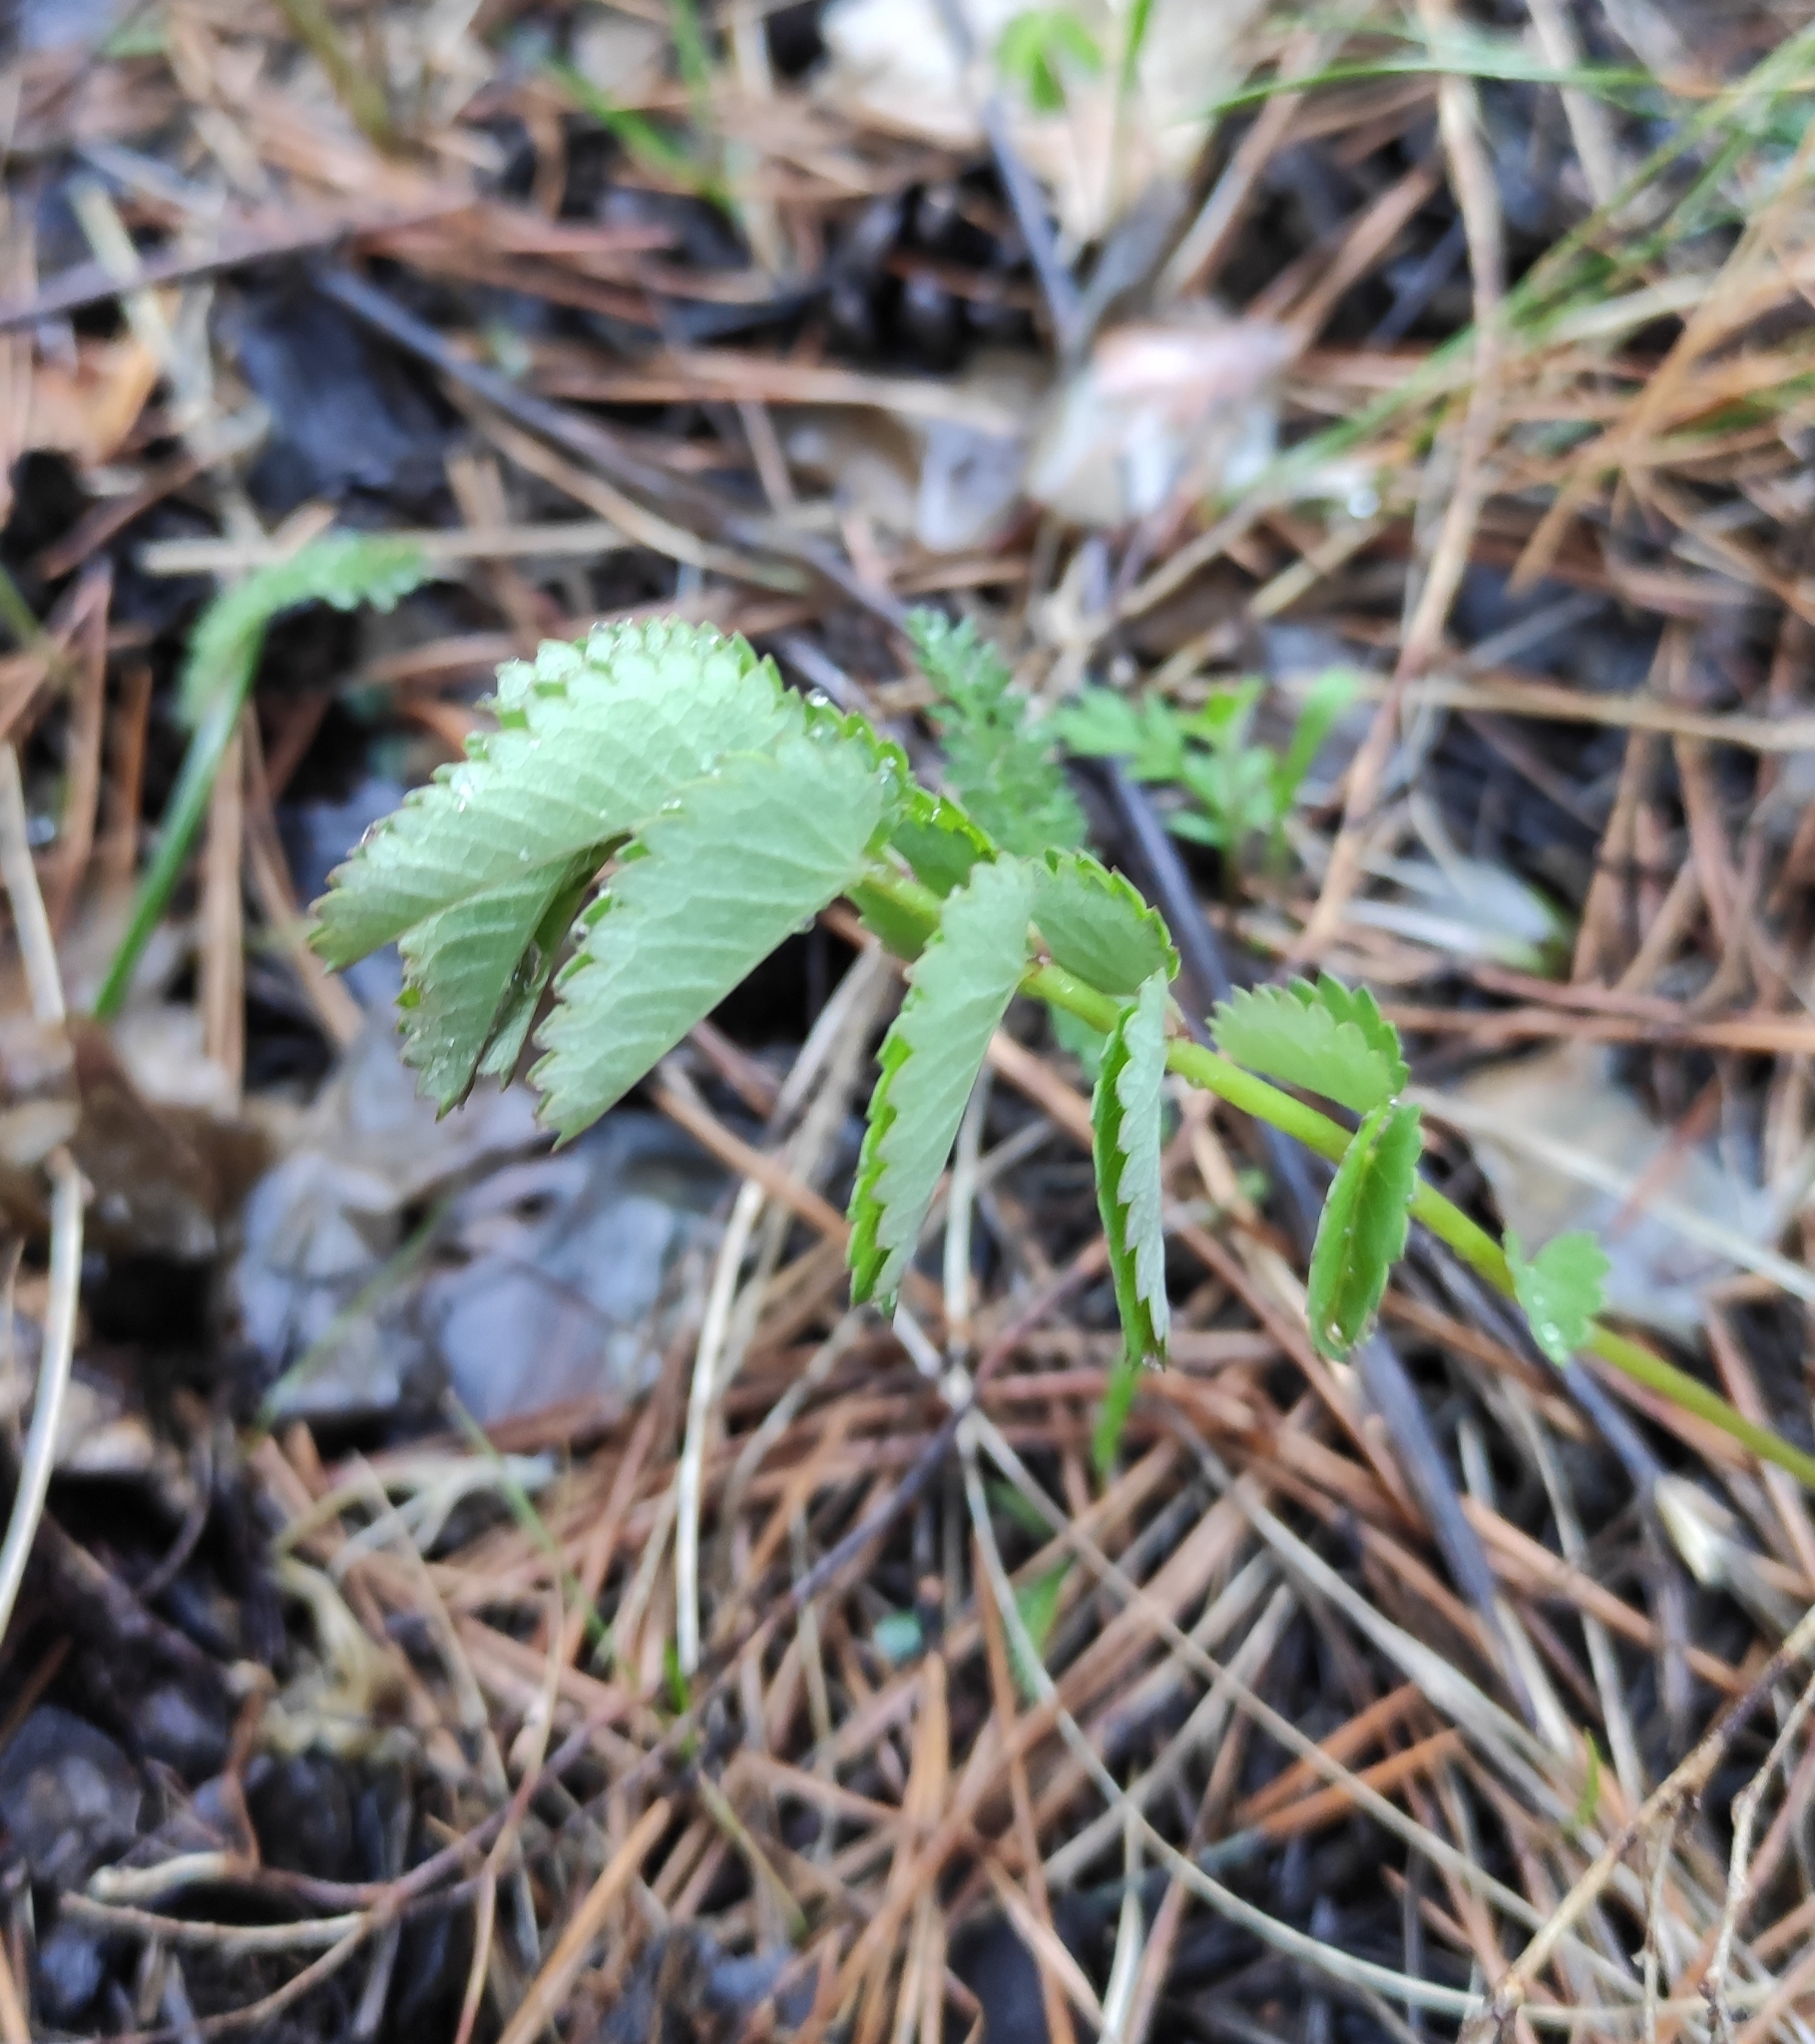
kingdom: Plantae
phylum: Tracheophyta
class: Magnoliopsida
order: Rosales
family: Rosaceae
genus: Sanguisorba
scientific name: Sanguisorba officinalis
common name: Great burnet
